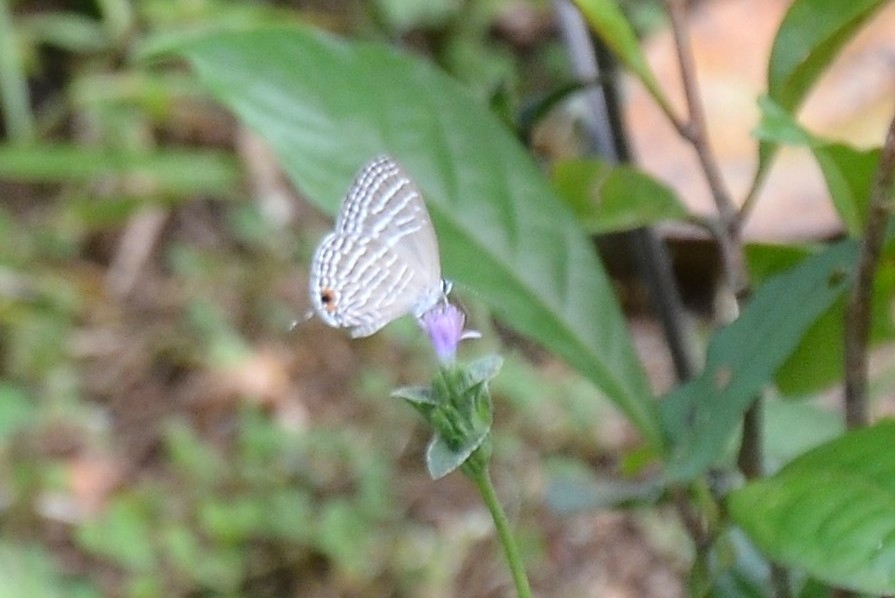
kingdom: Animalia
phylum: Arthropoda
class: Insecta
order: Lepidoptera
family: Lycaenidae
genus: Jamides
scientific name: Jamides celeno
